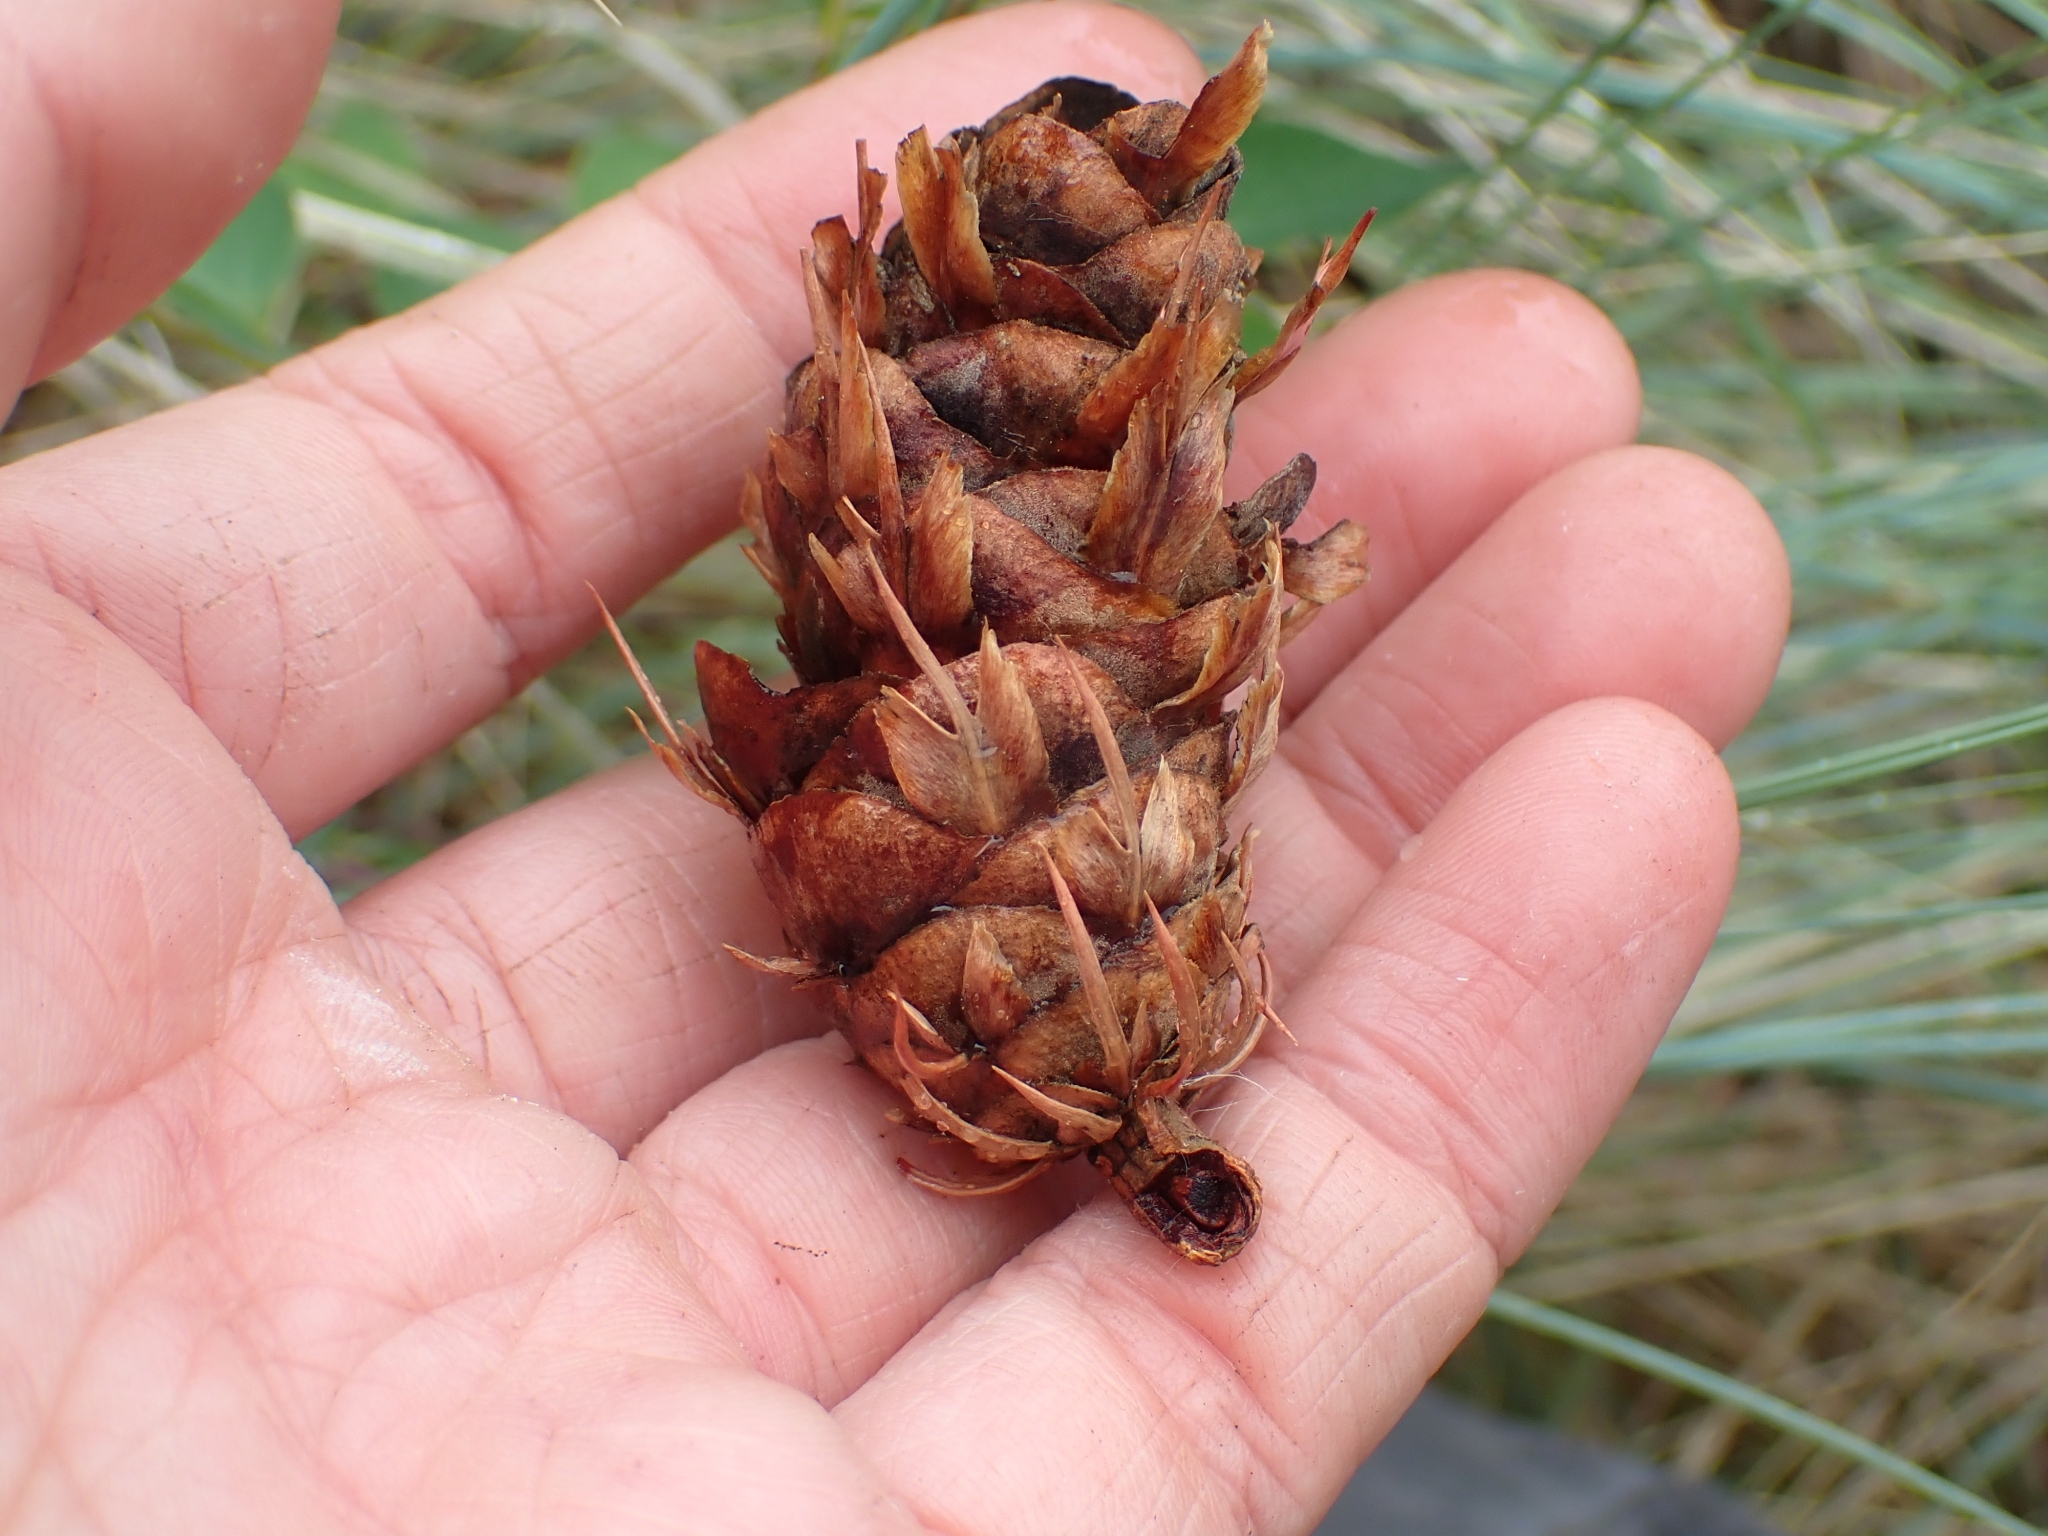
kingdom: Plantae
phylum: Tracheophyta
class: Pinopsida
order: Pinales
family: Pinaceae
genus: Pseudotsuga
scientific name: Pseudotsuga menziesii
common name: Douglas fir
